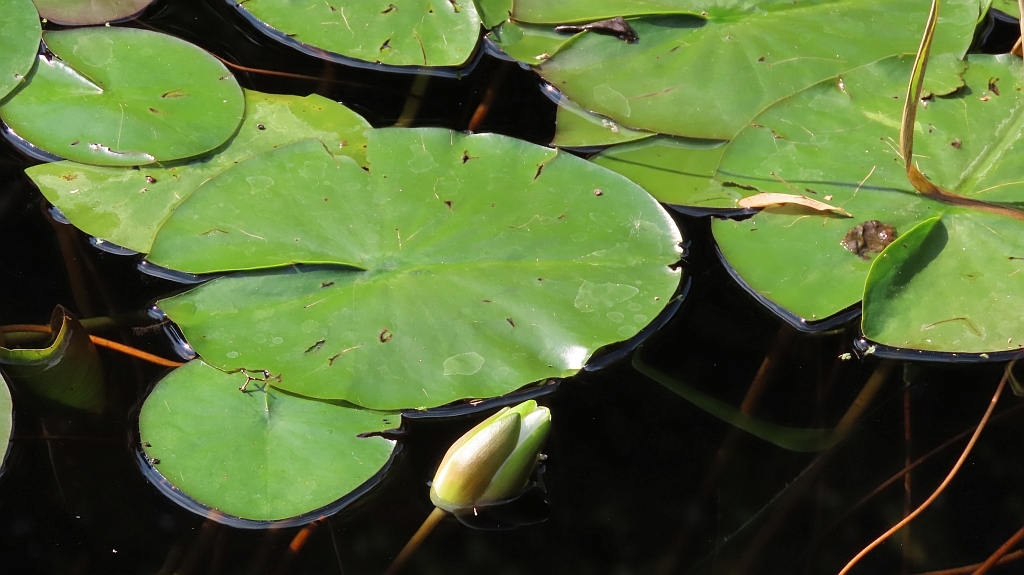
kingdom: Plantae
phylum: Tracheophyta
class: Magnoliopsida
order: Nymphaeales
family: Nymphaeaceae
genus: Nymphaea
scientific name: Nymphaea alba
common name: White water-lily
